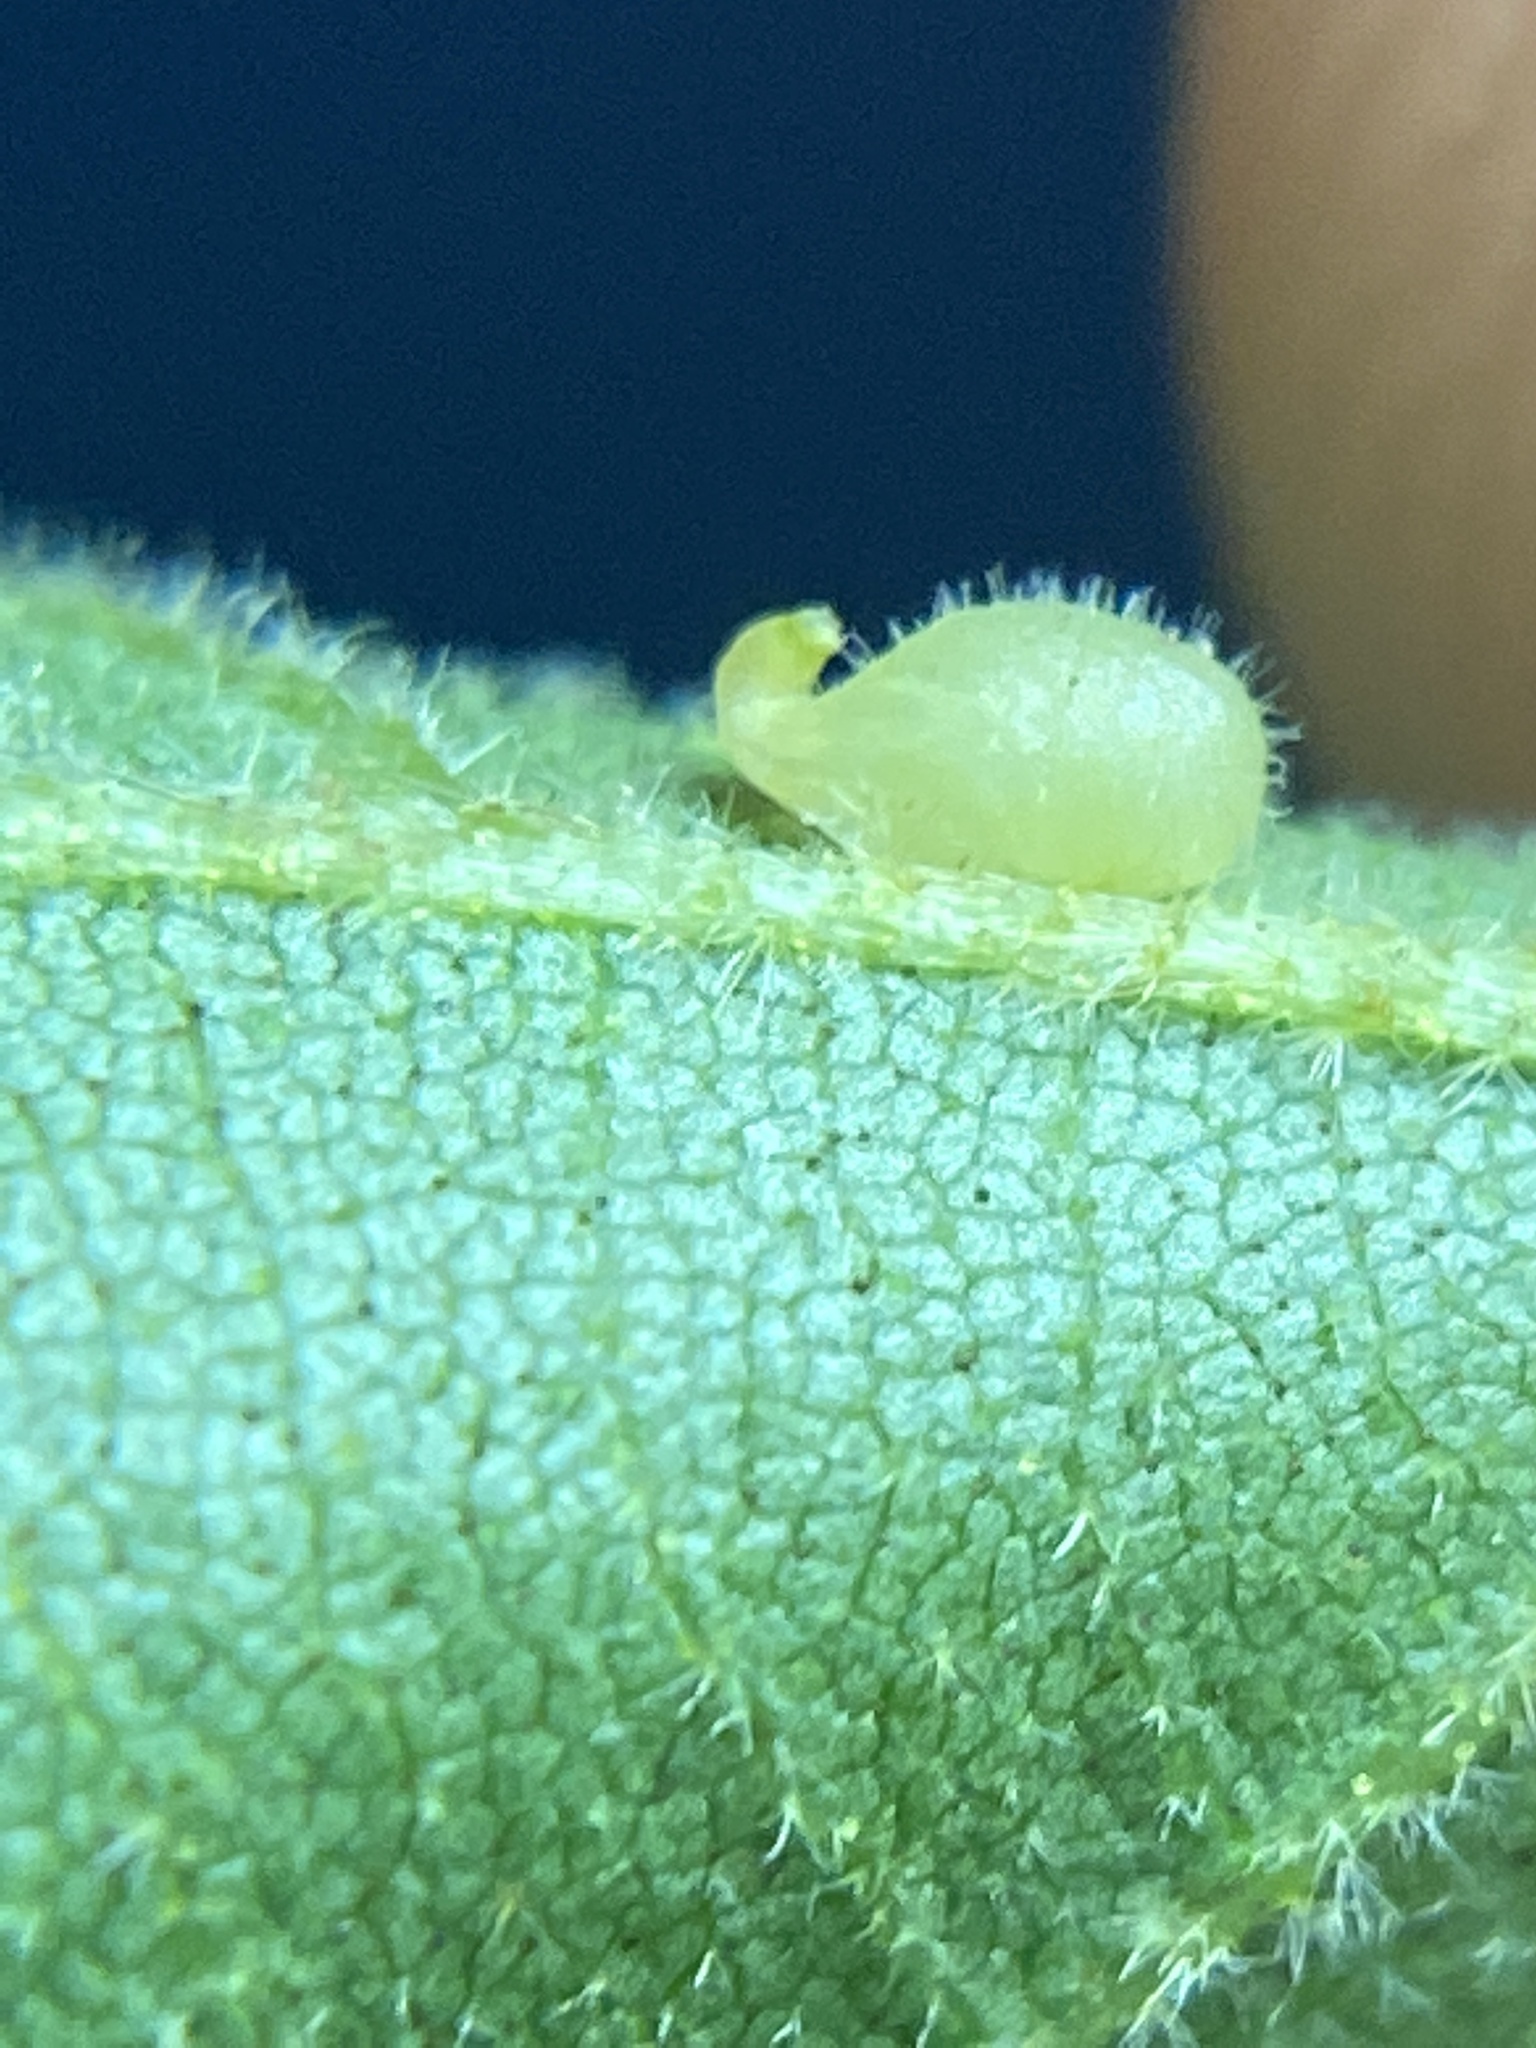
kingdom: Animalia
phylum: Arthropoda
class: Insecta
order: Diptera
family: Cecidomyiidae
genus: Caryomyia
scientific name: Caryomyia eumaris
